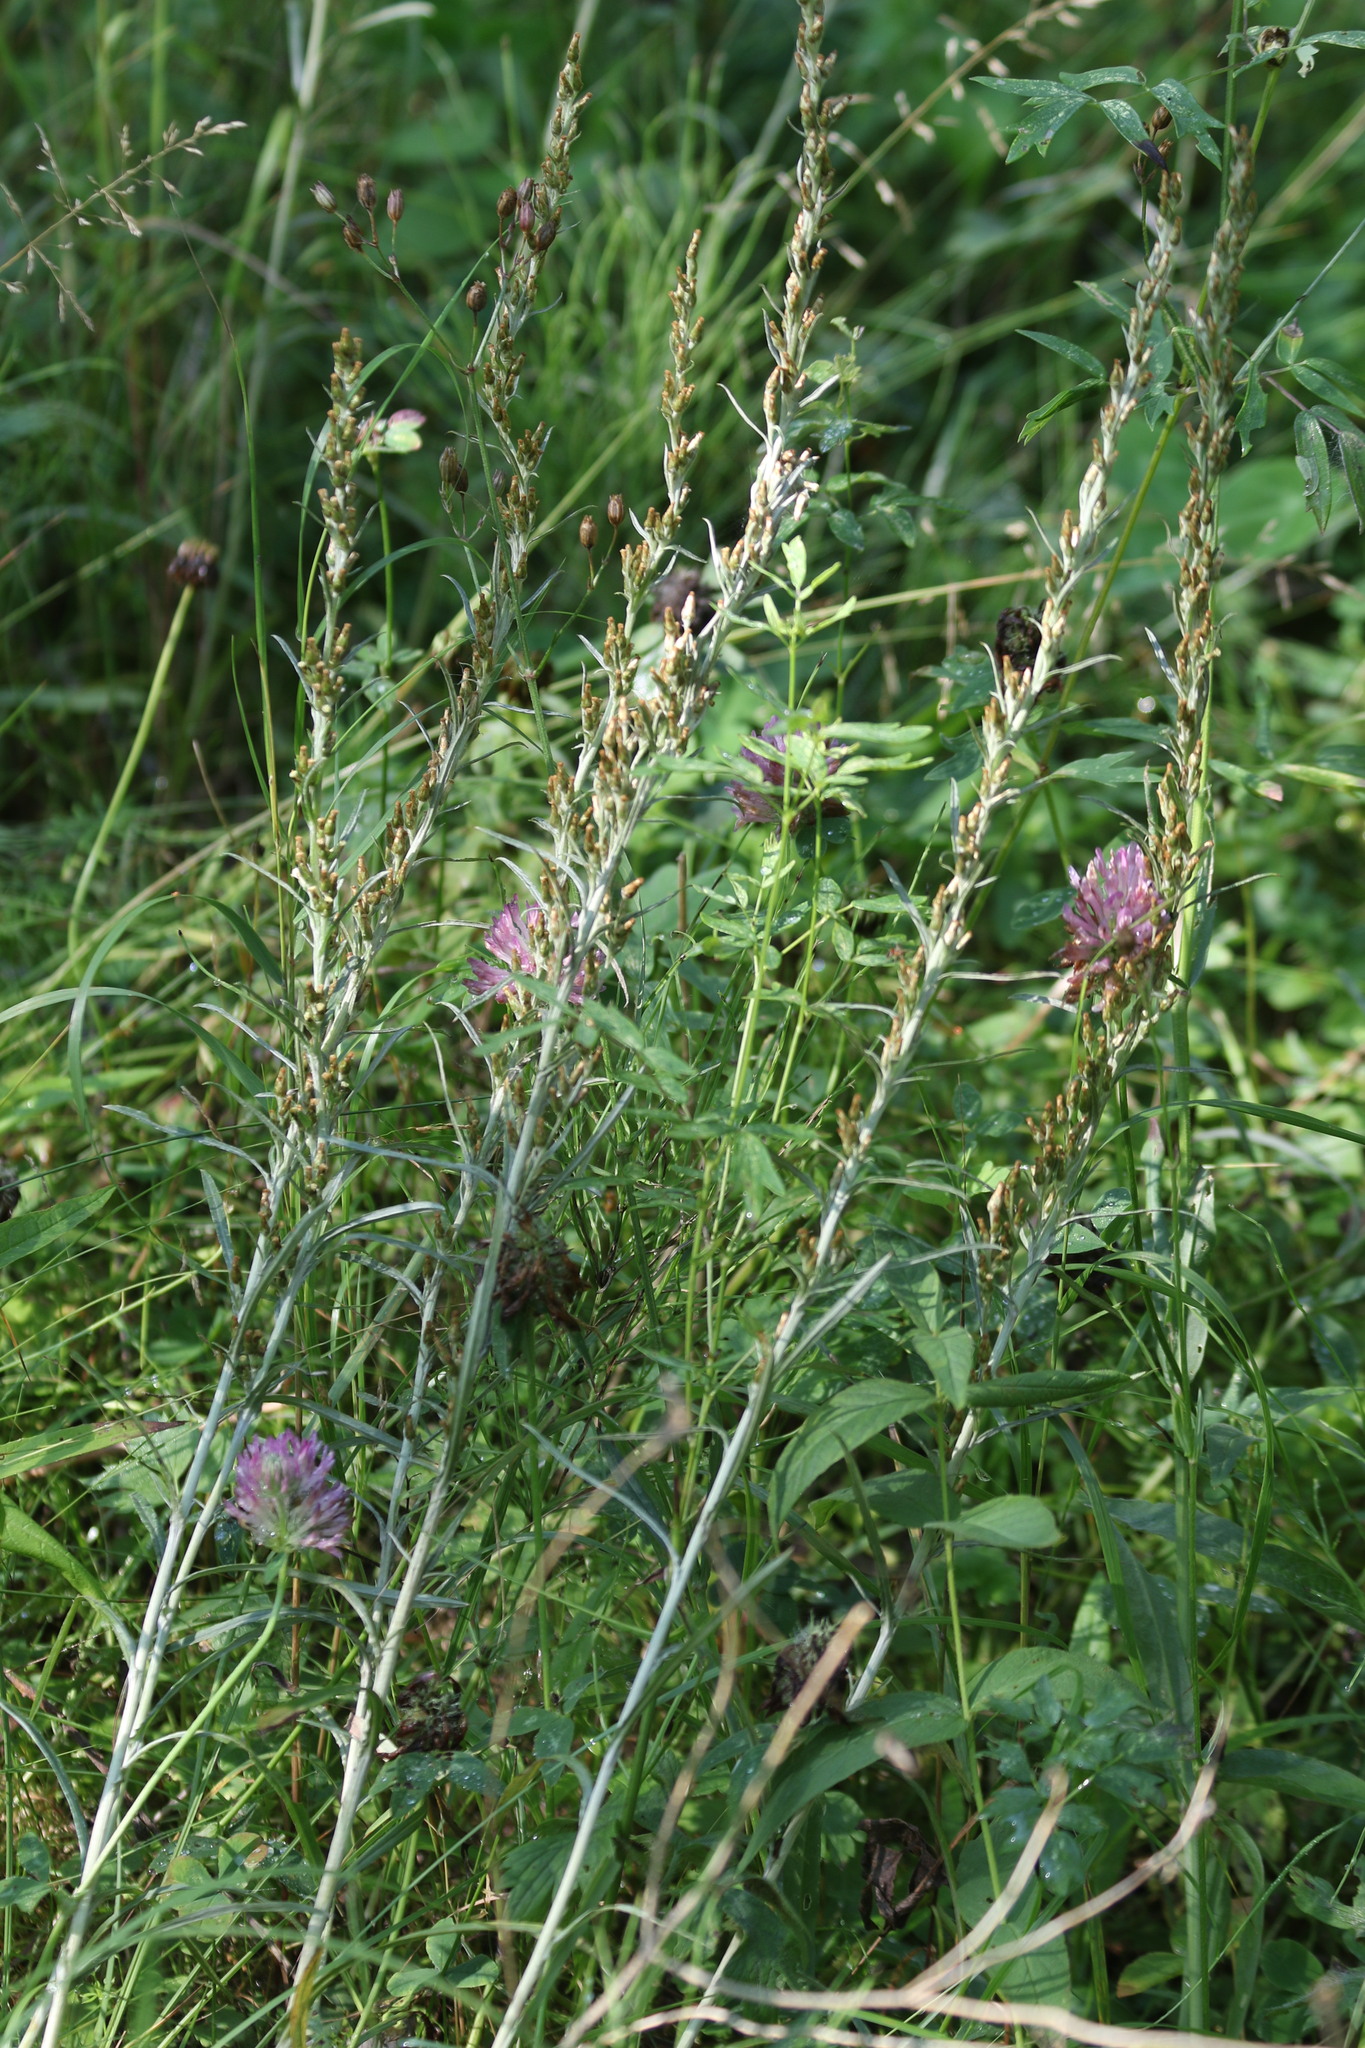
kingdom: Plantae
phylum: Tracheophyta
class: Magnoliopsida
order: Asterales
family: Asteraceae
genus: Omalotheca
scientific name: Omalotheca sylvatica
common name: Heath cudweed
